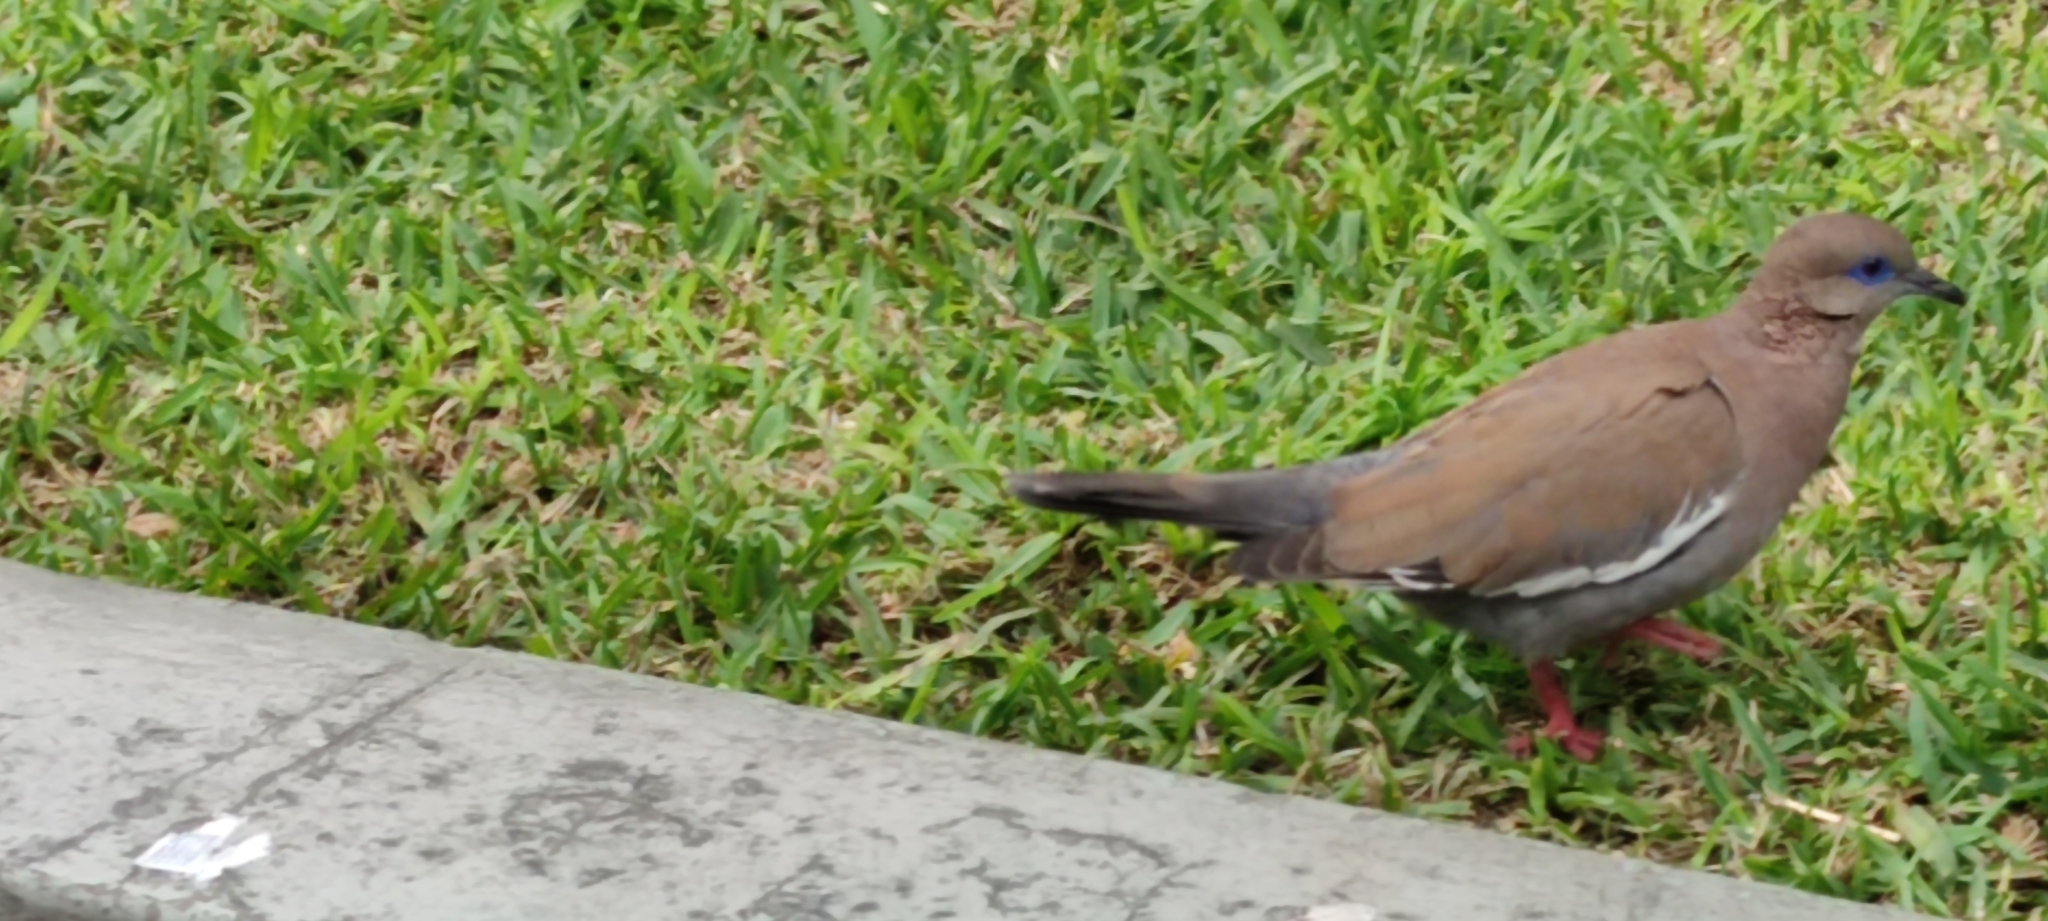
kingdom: Animalia
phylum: Chordata
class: Aves
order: Columbiformes
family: Columbidae
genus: Zenaida
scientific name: Zenaida meloda
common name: West peruvian dove
